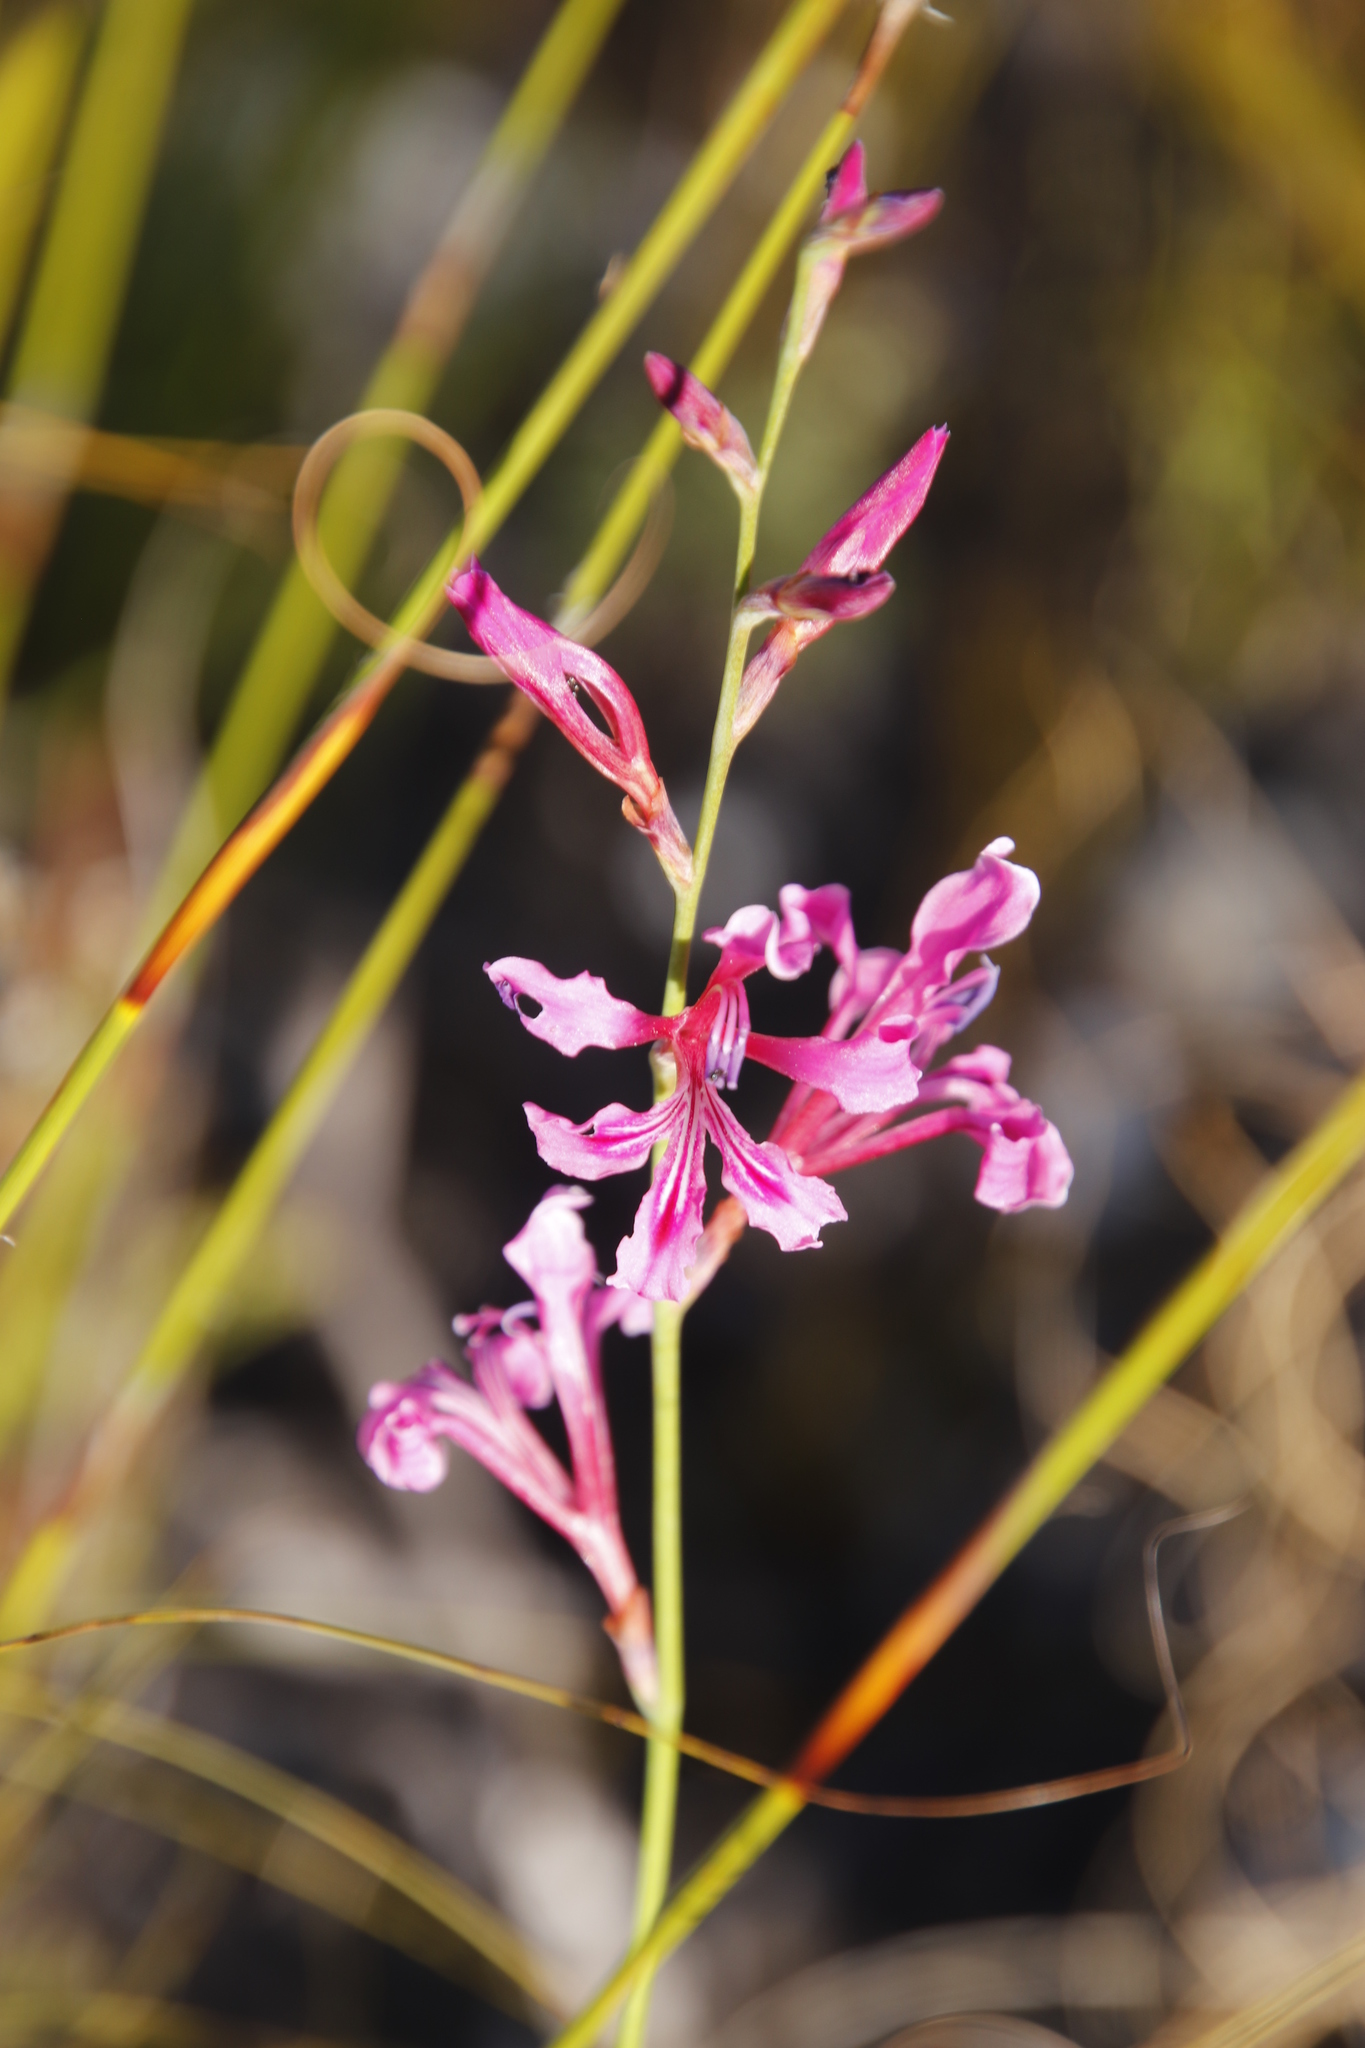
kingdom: Plantae
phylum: Tracheophyta
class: Liliopsida
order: Asparagales
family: Iridaceae
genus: Tritoniopsis
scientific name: Tritoniopsis ramosa
